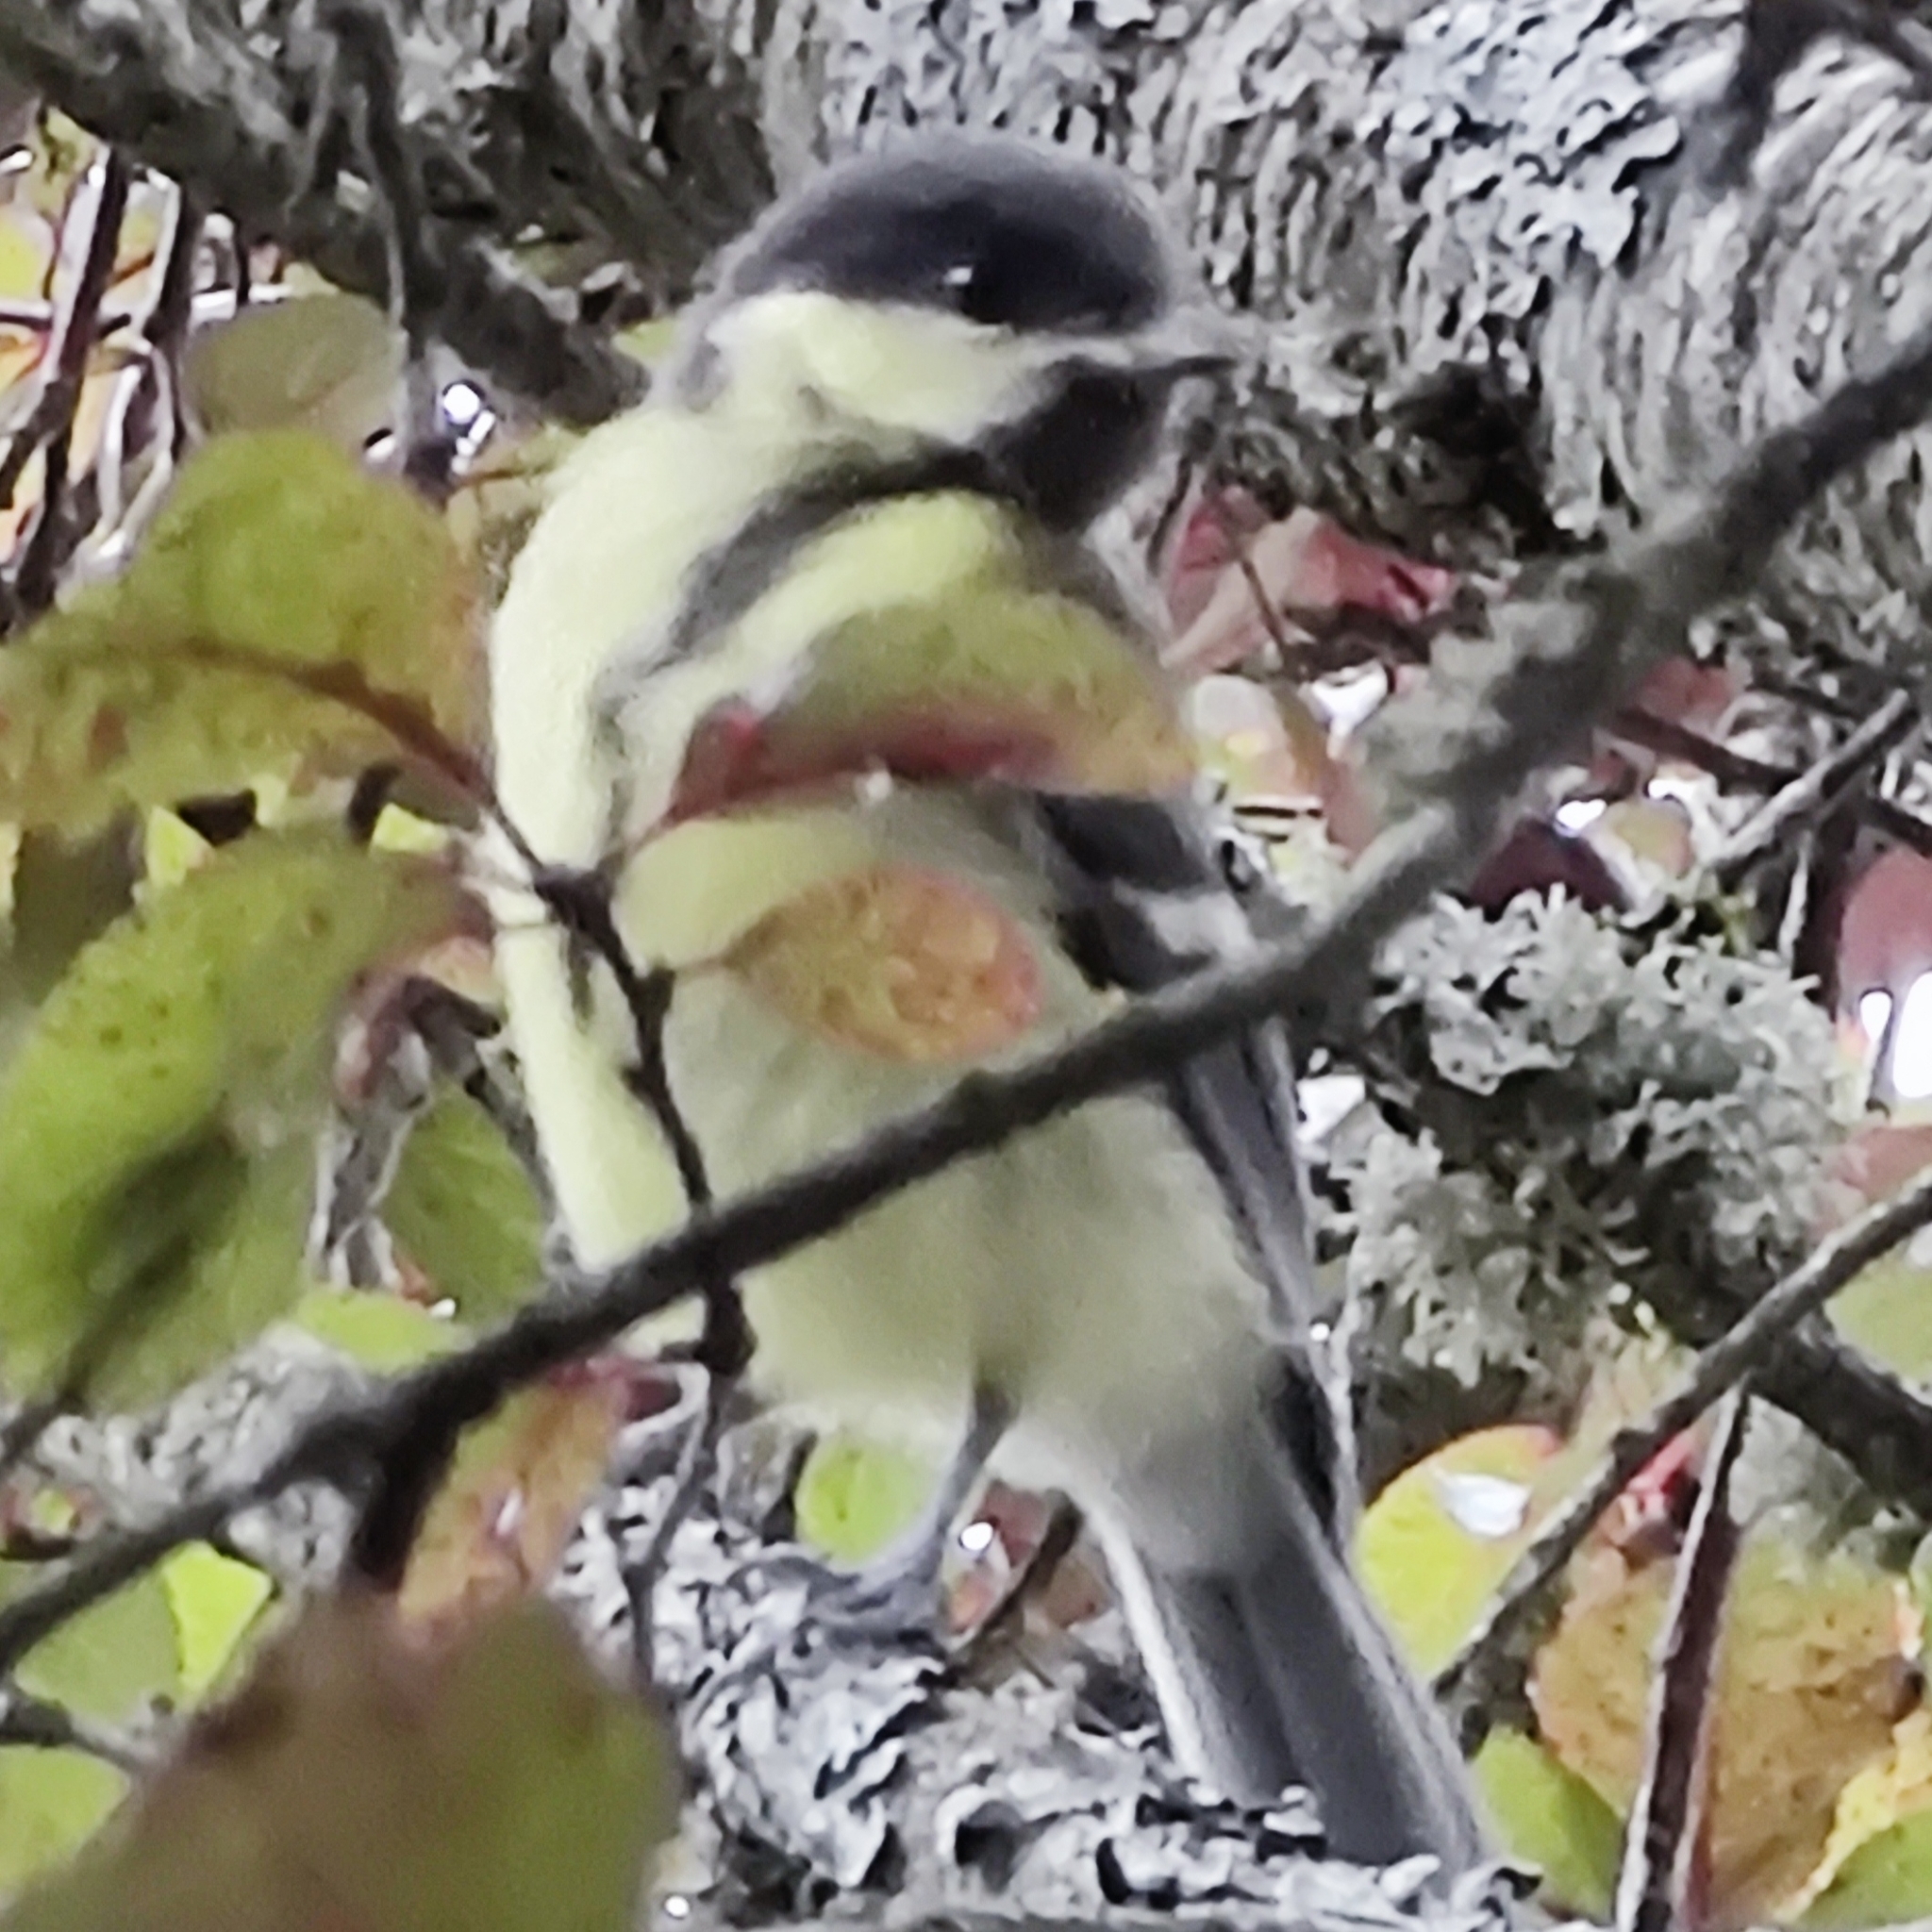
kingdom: Animalia
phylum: Chordata
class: Aves
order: Passeriformes
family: Paridae
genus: Parus
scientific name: Parus major
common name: Great tit
